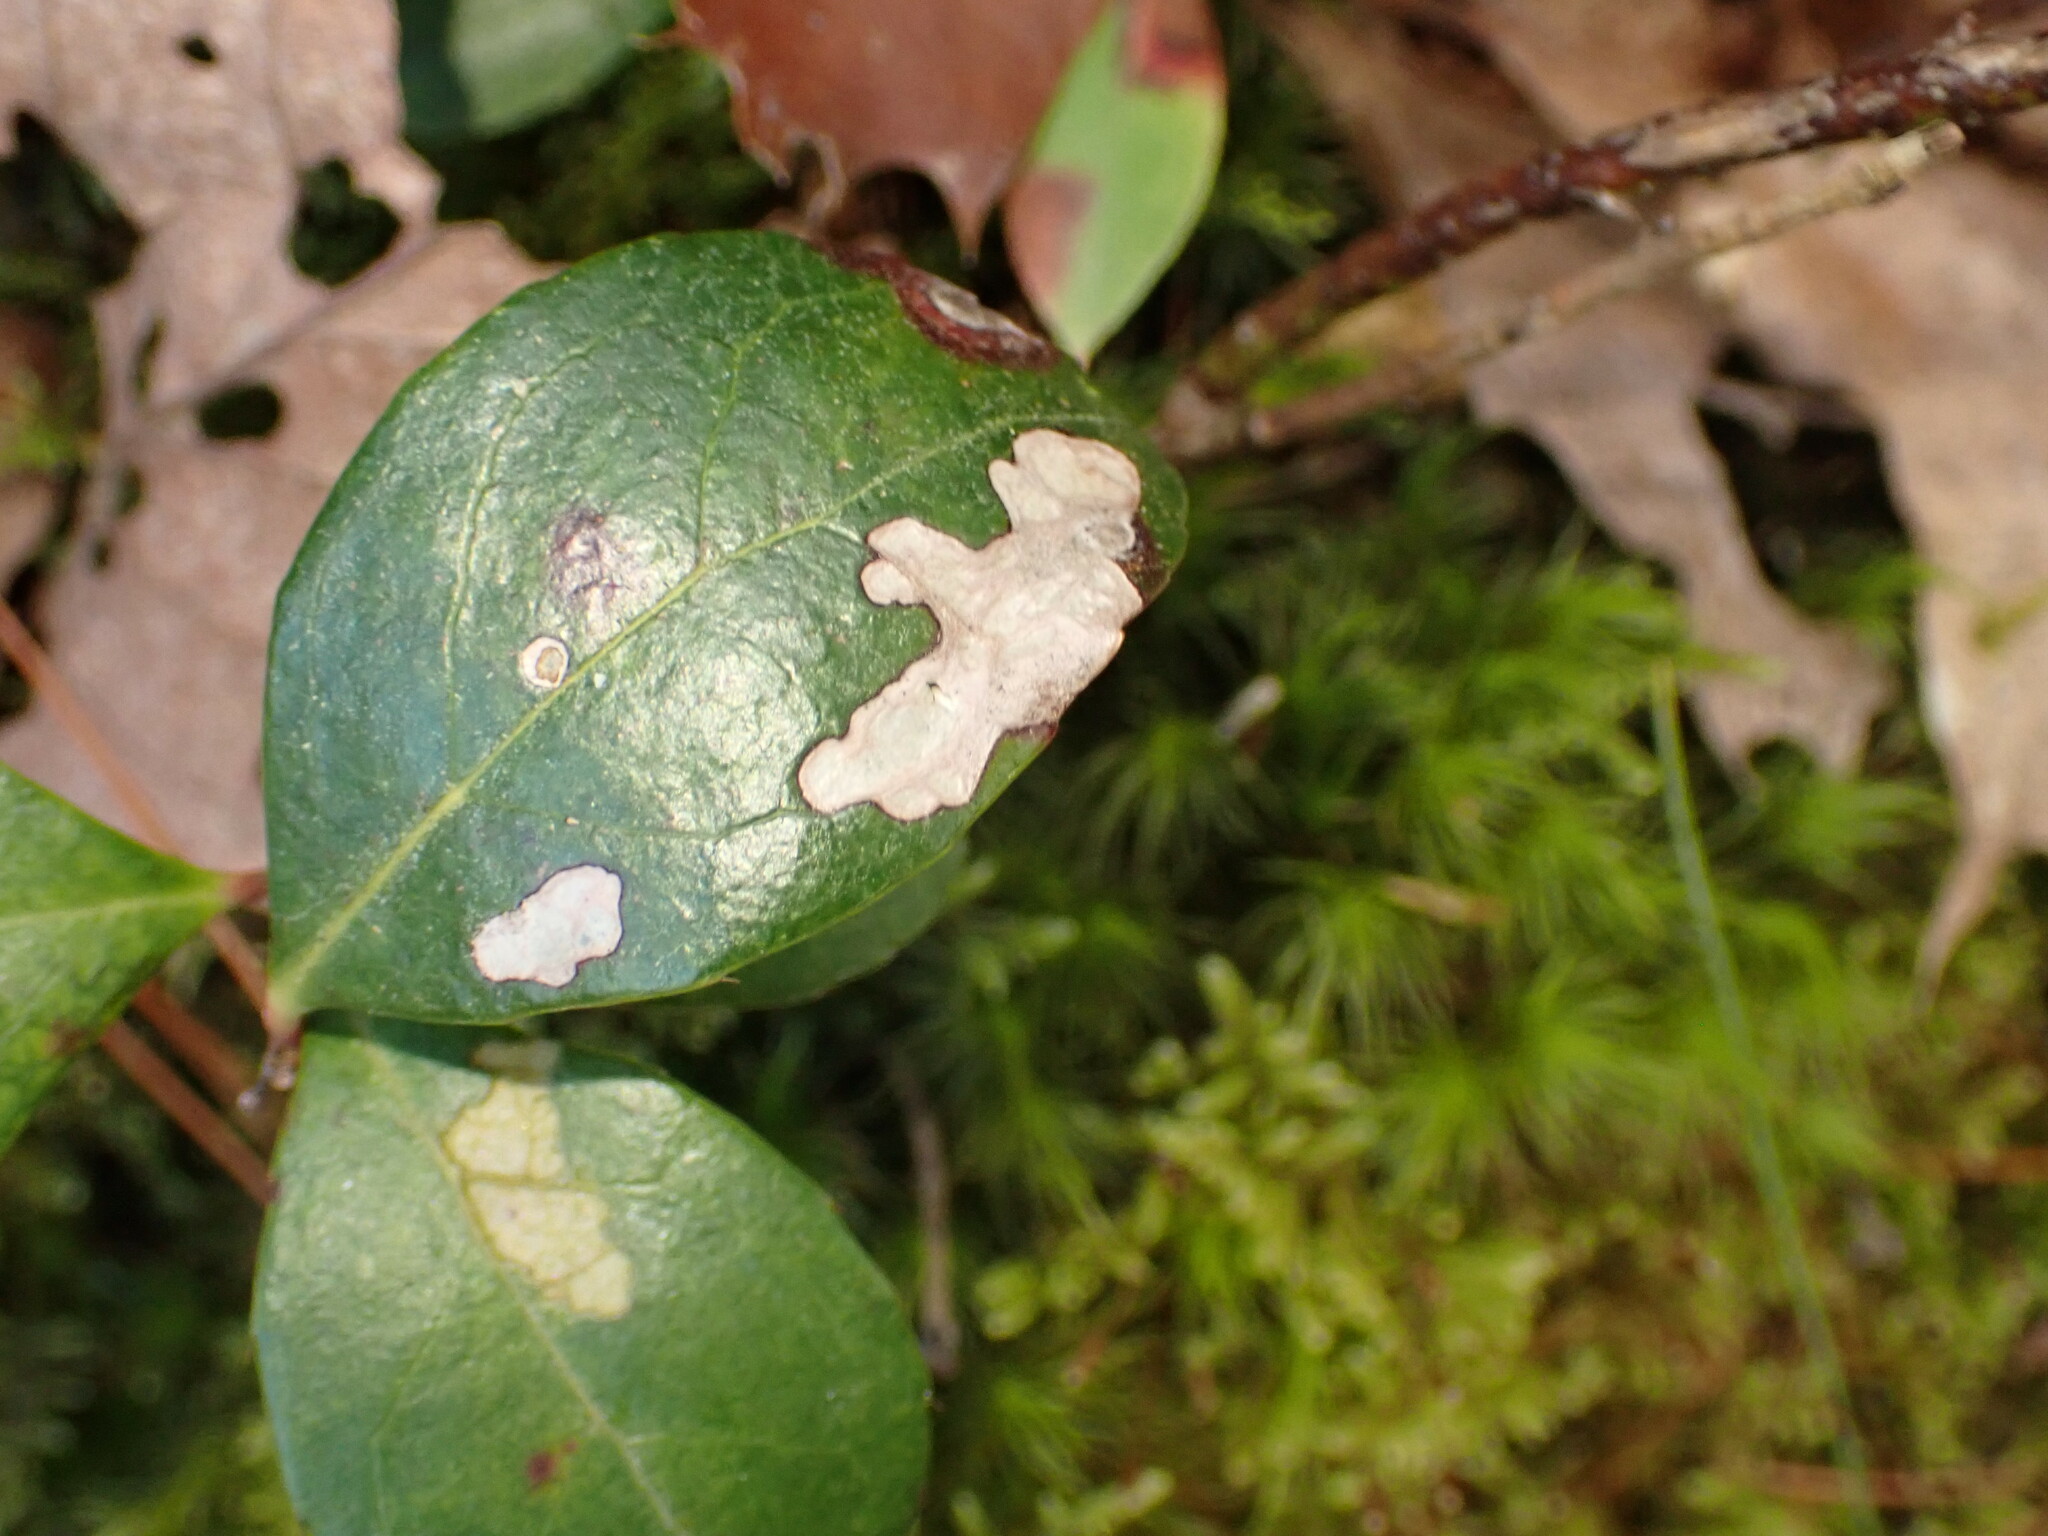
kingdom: Plantae
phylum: Tracheophyta
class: Magnoliopsida
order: Ericales
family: Ericaceae
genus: Gaultheria
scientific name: Gaultheria procumbens
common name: Checkerberry
